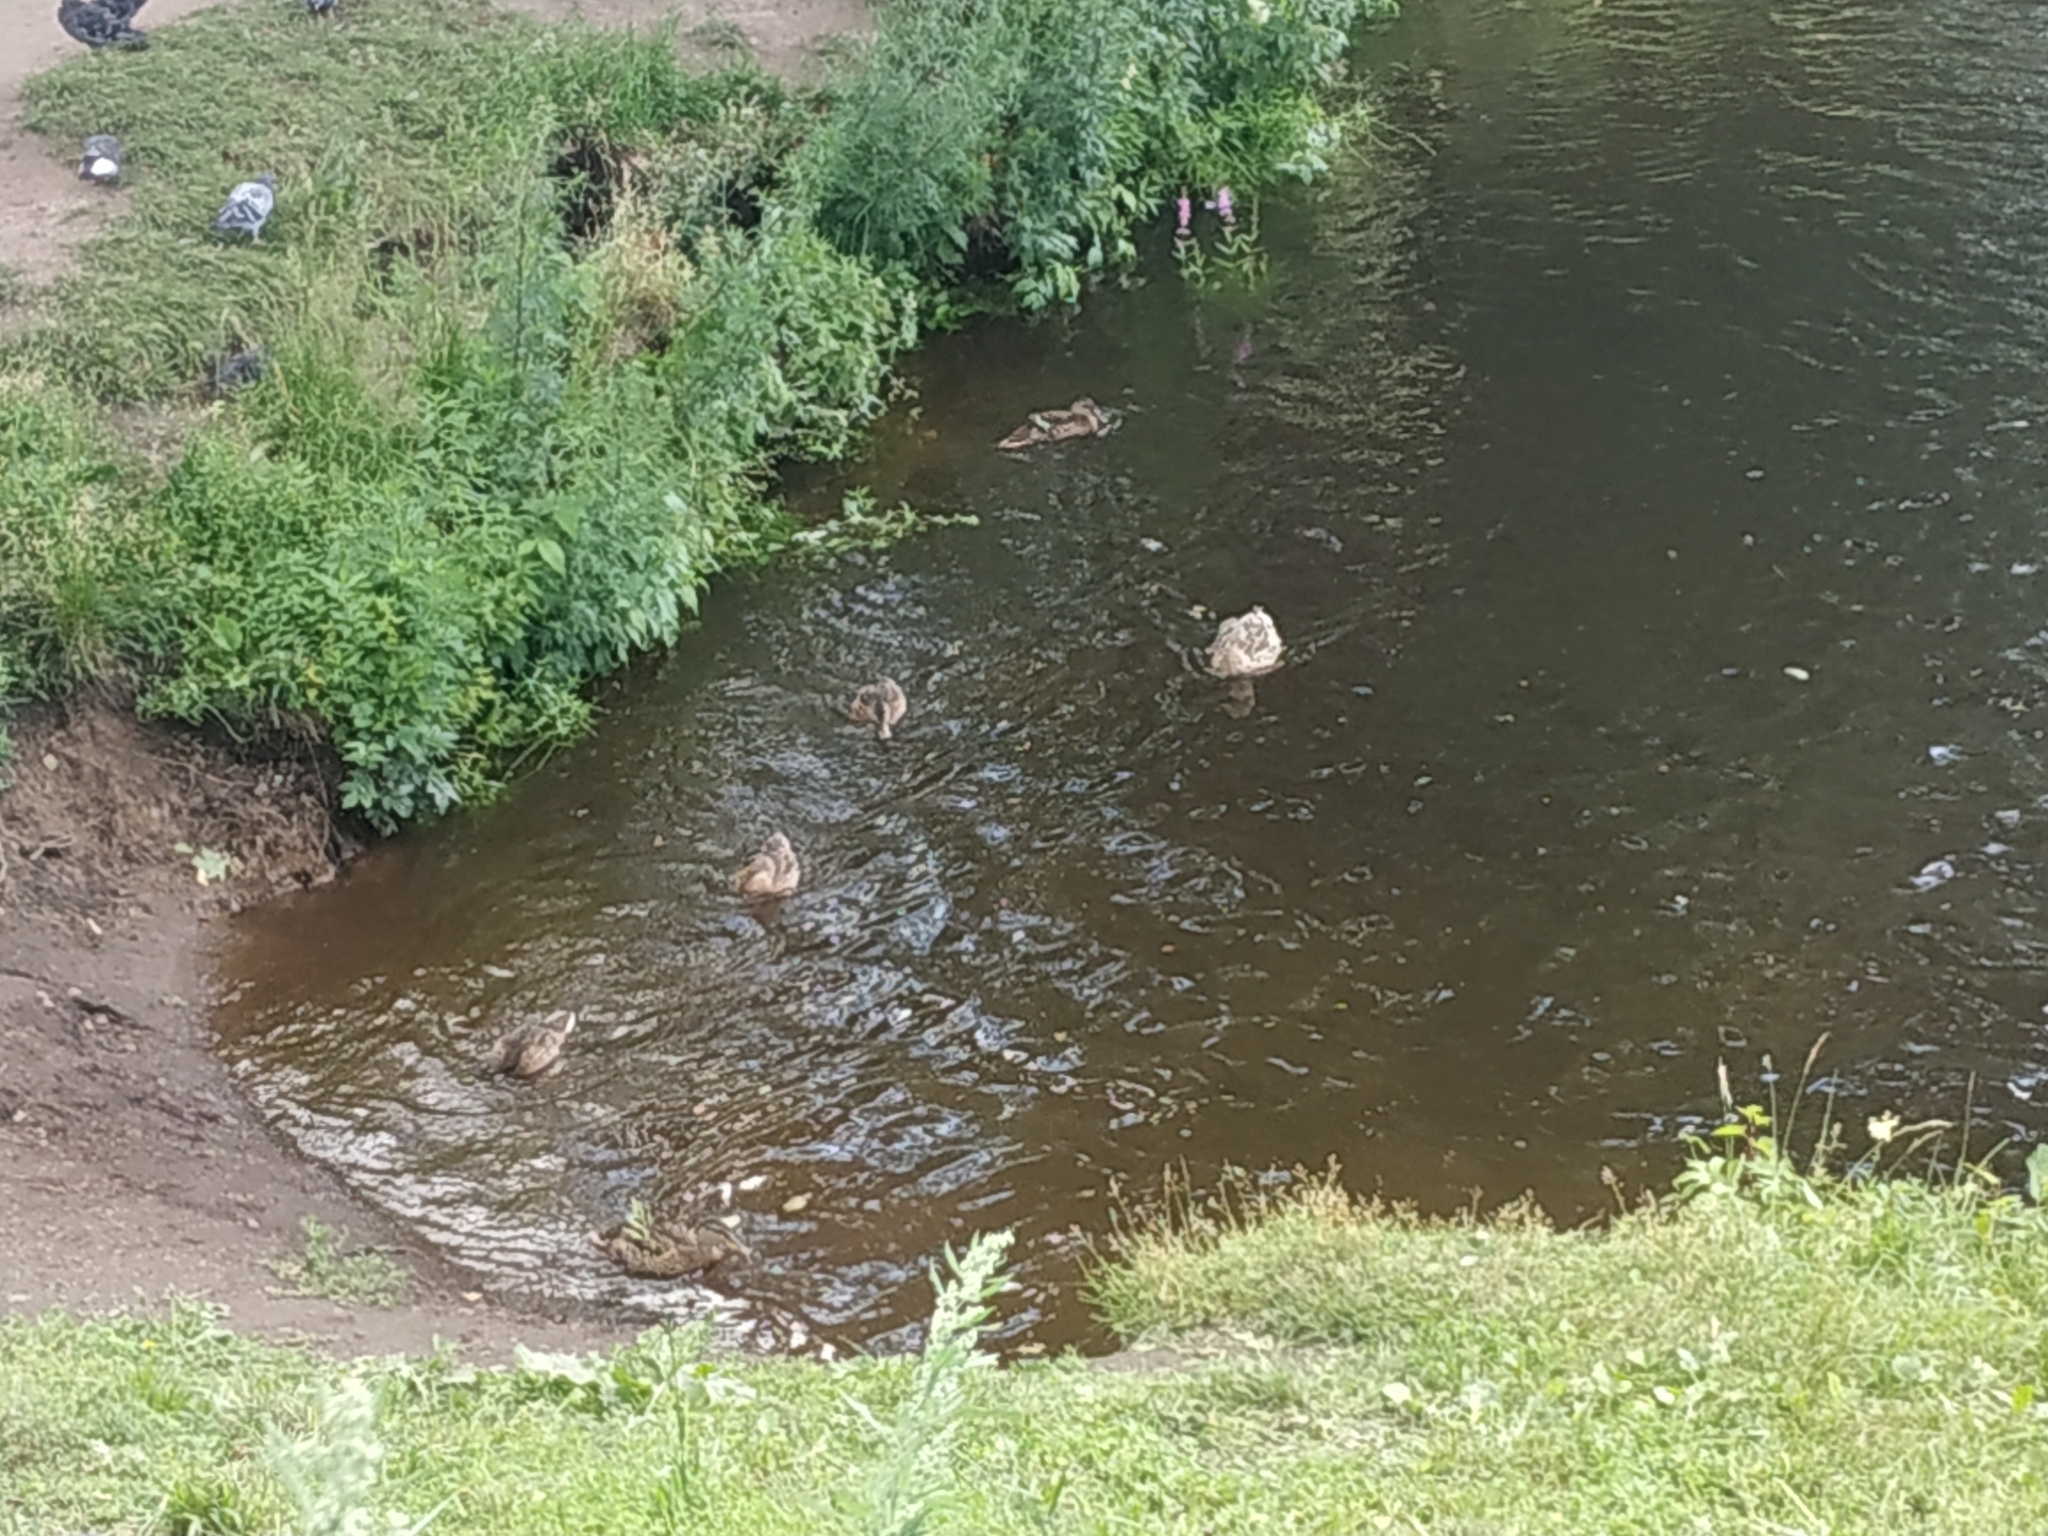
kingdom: Animalia
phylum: Chordata
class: Aves
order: Anseriformes
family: Anatidae
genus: Anas
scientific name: Anas platyrhynchos
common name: Mallard
